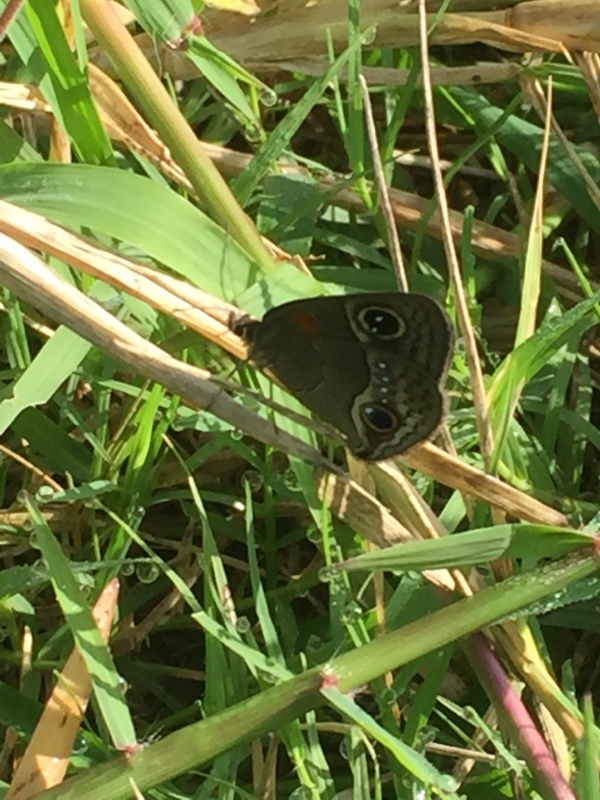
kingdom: Animalia
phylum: Arthropoda
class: Insecta
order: Lepidoptera
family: Nymphalidae
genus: Calisto
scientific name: Calisto herophile
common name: Cuban calisto
